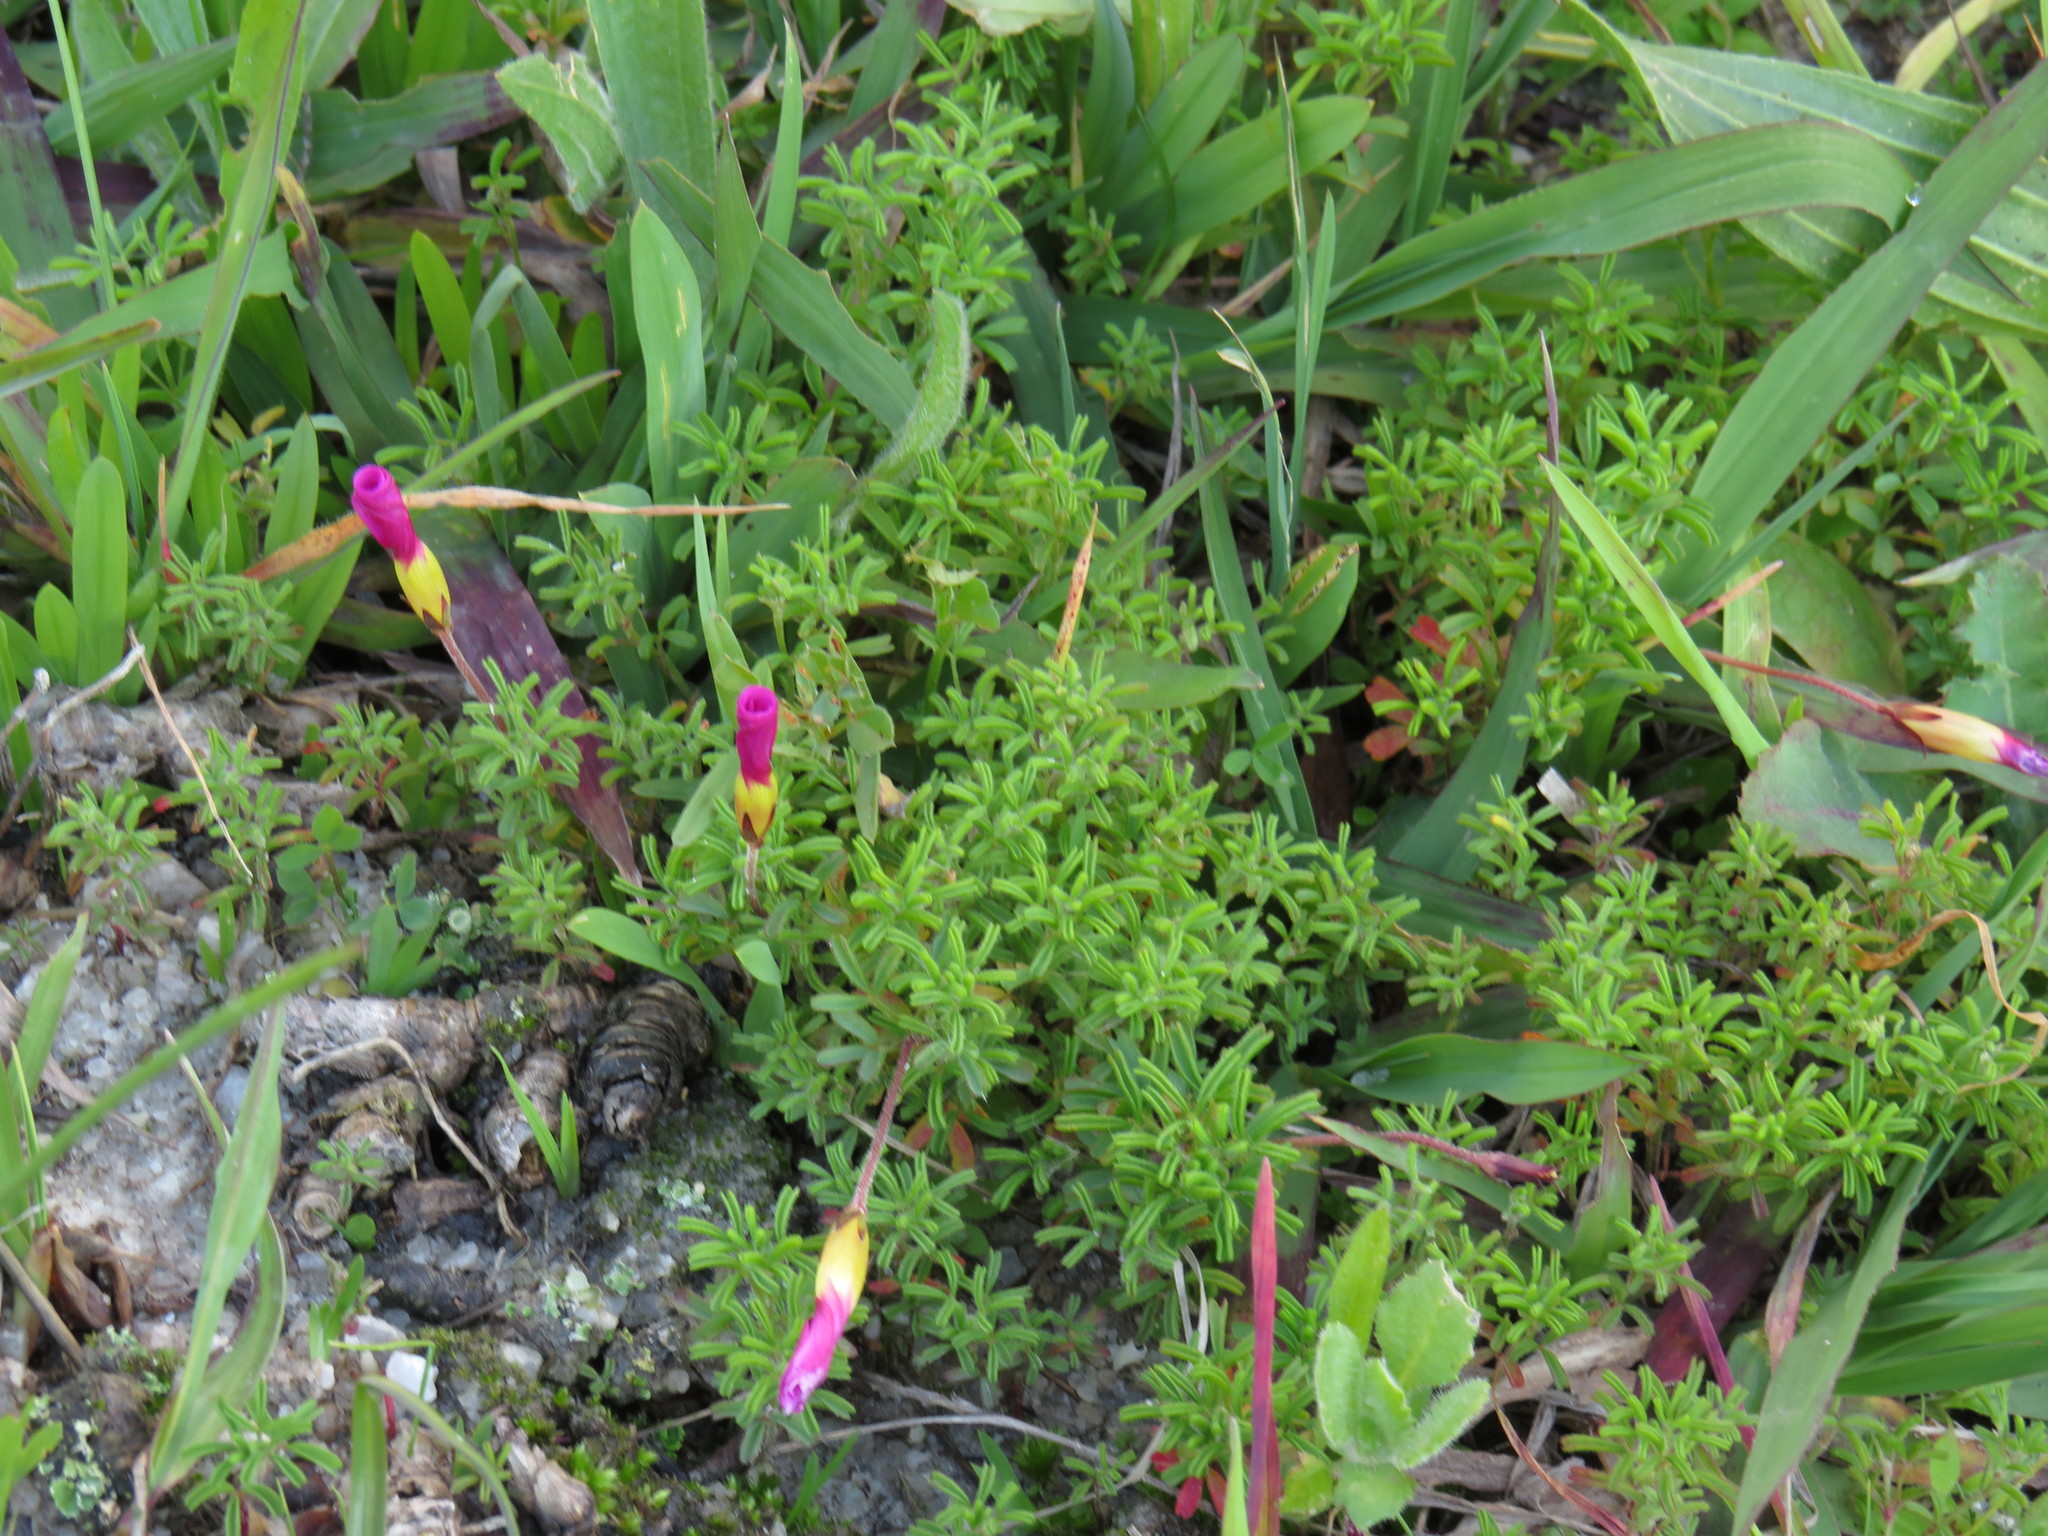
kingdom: Plantae
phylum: Tracheophyta
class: Magnoliopsida
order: Oxalidales
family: Oxalidaceae
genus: Oxalis
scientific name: Oxalis glabra
